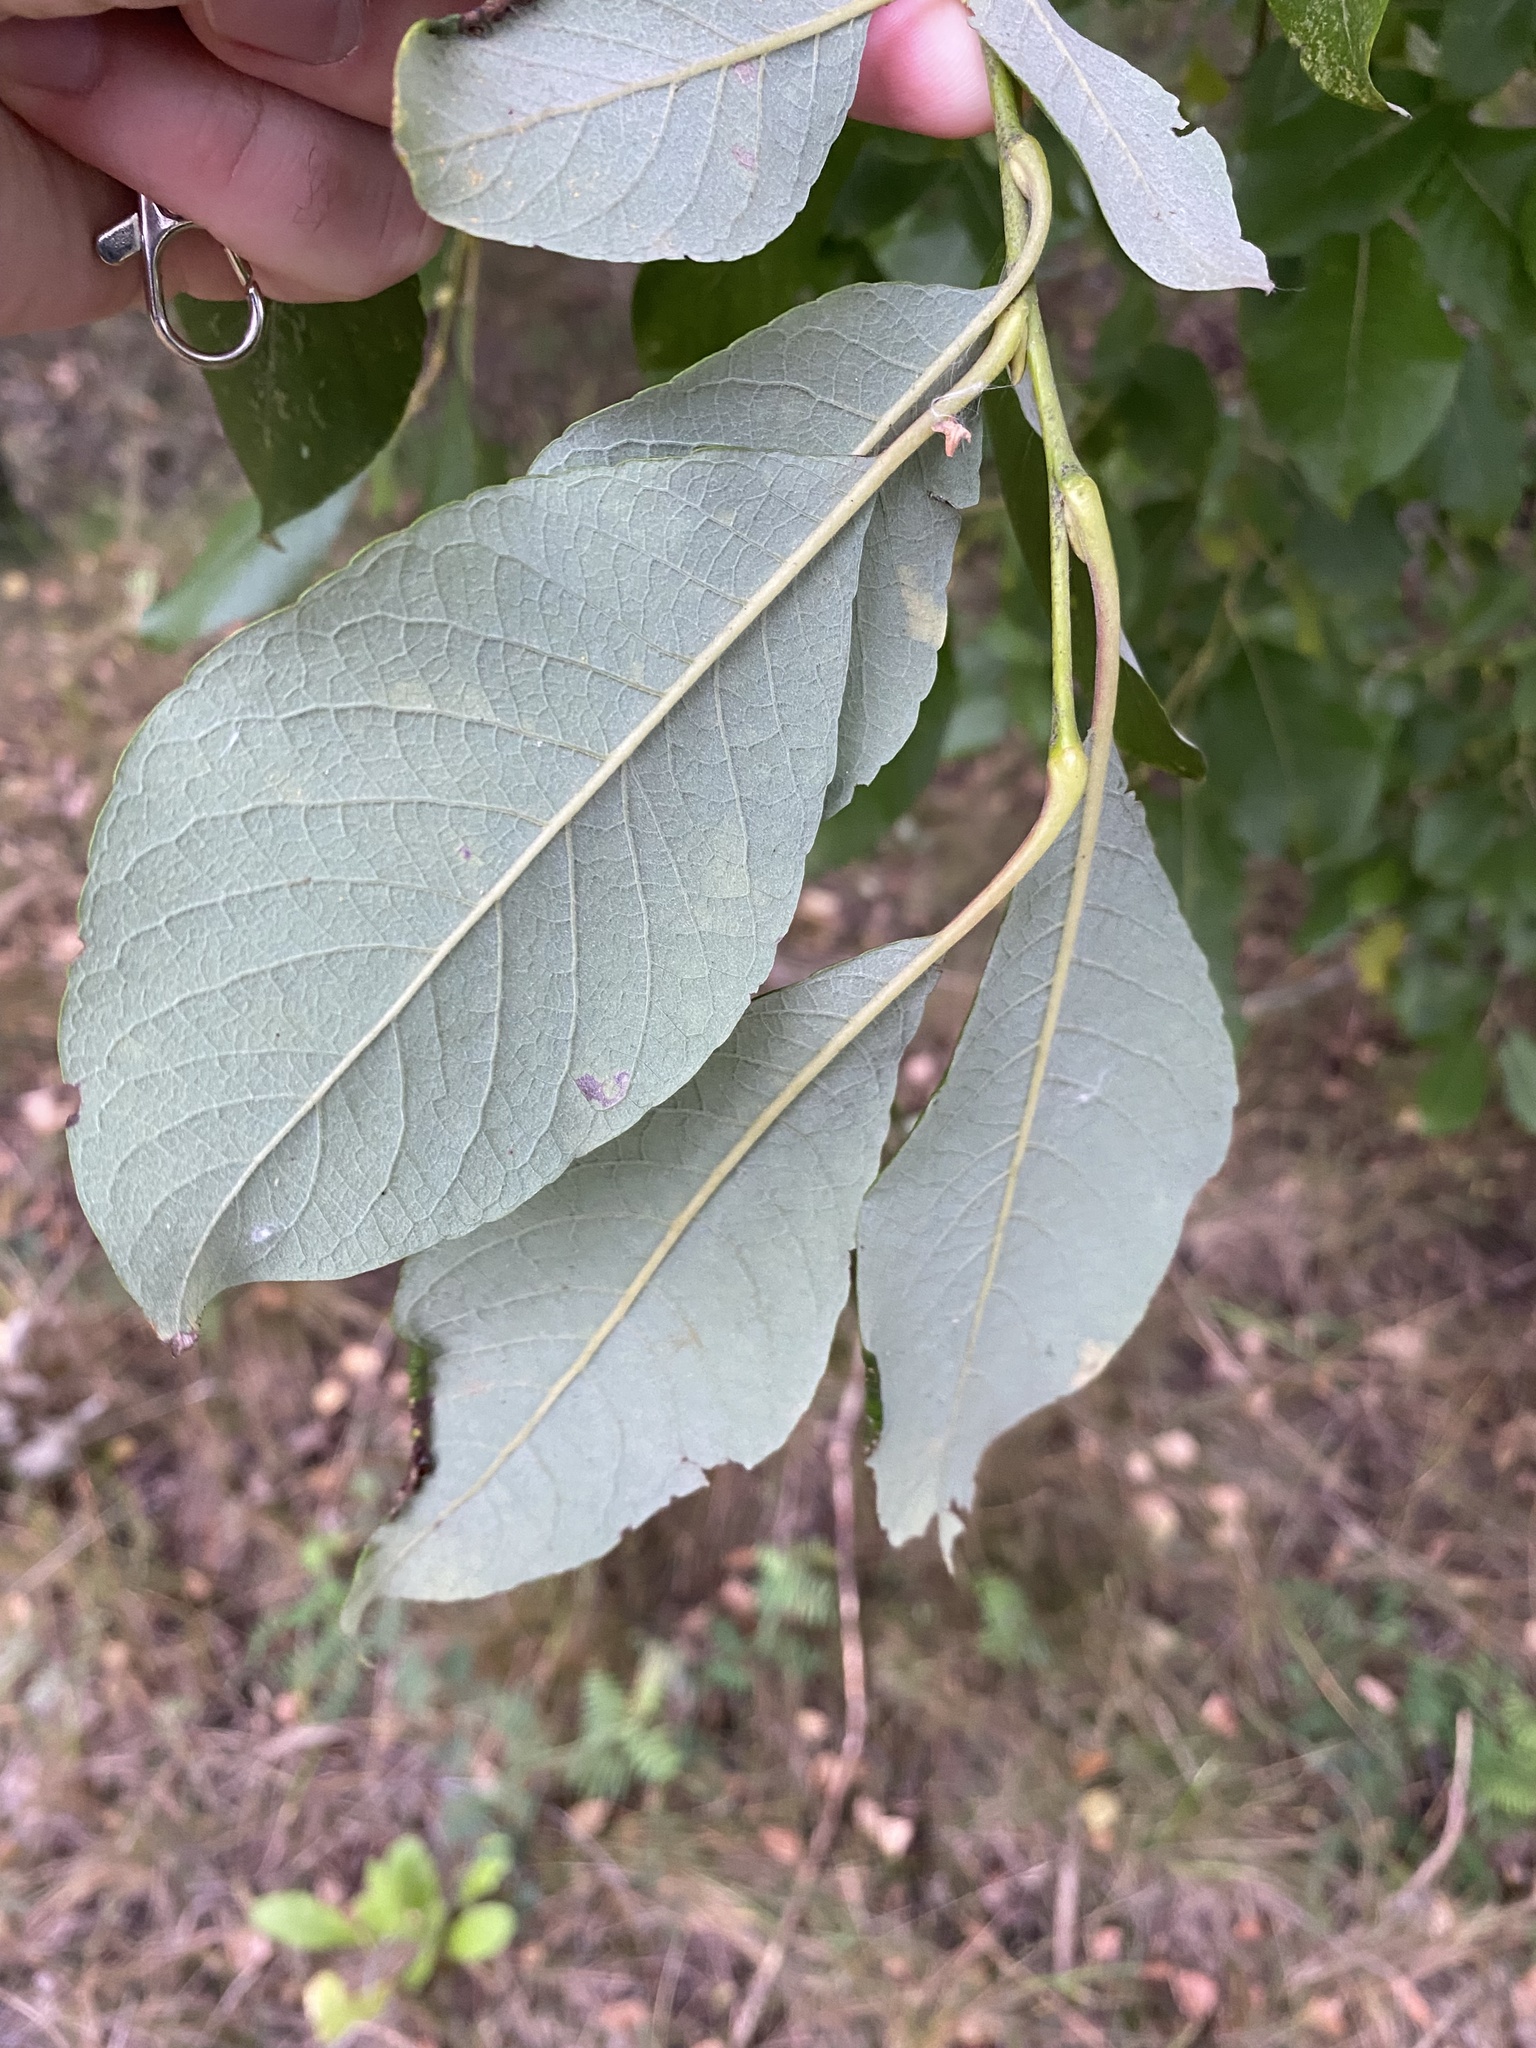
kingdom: Plantae
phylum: Tracheophyta
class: Magnoliopsida
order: Malpighiales
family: Salicaceae
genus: Salix
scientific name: Salix caprea
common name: Goat willow
